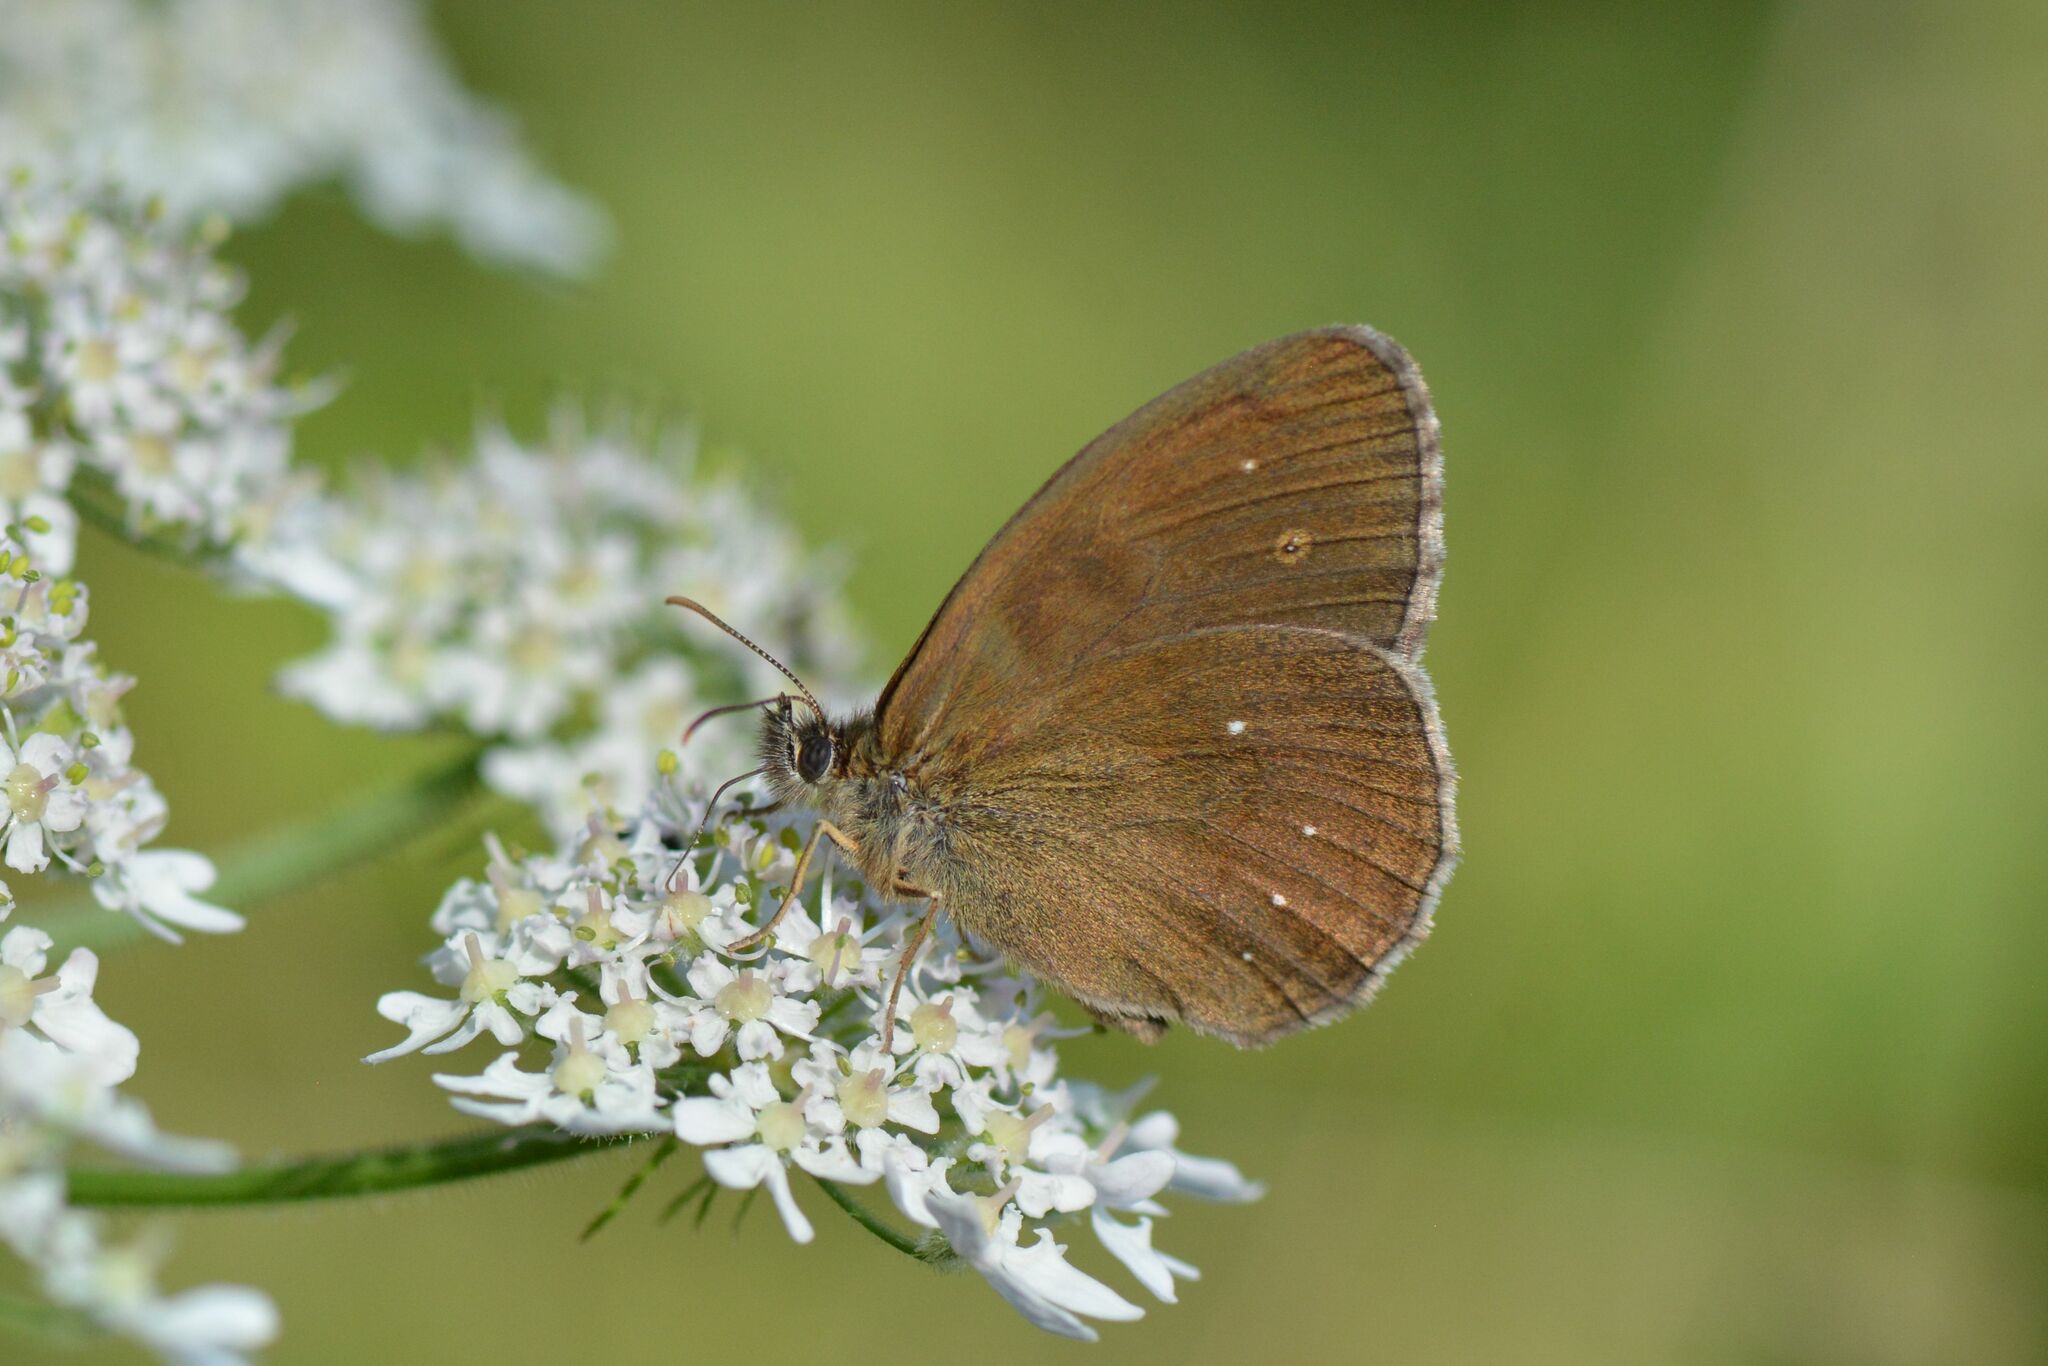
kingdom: Animalia
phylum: Arthropoda
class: Insecta
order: Lepidoptera
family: Nymphalidae
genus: Aphantopus
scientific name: Aphantopus hyperantus
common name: Ringlet
